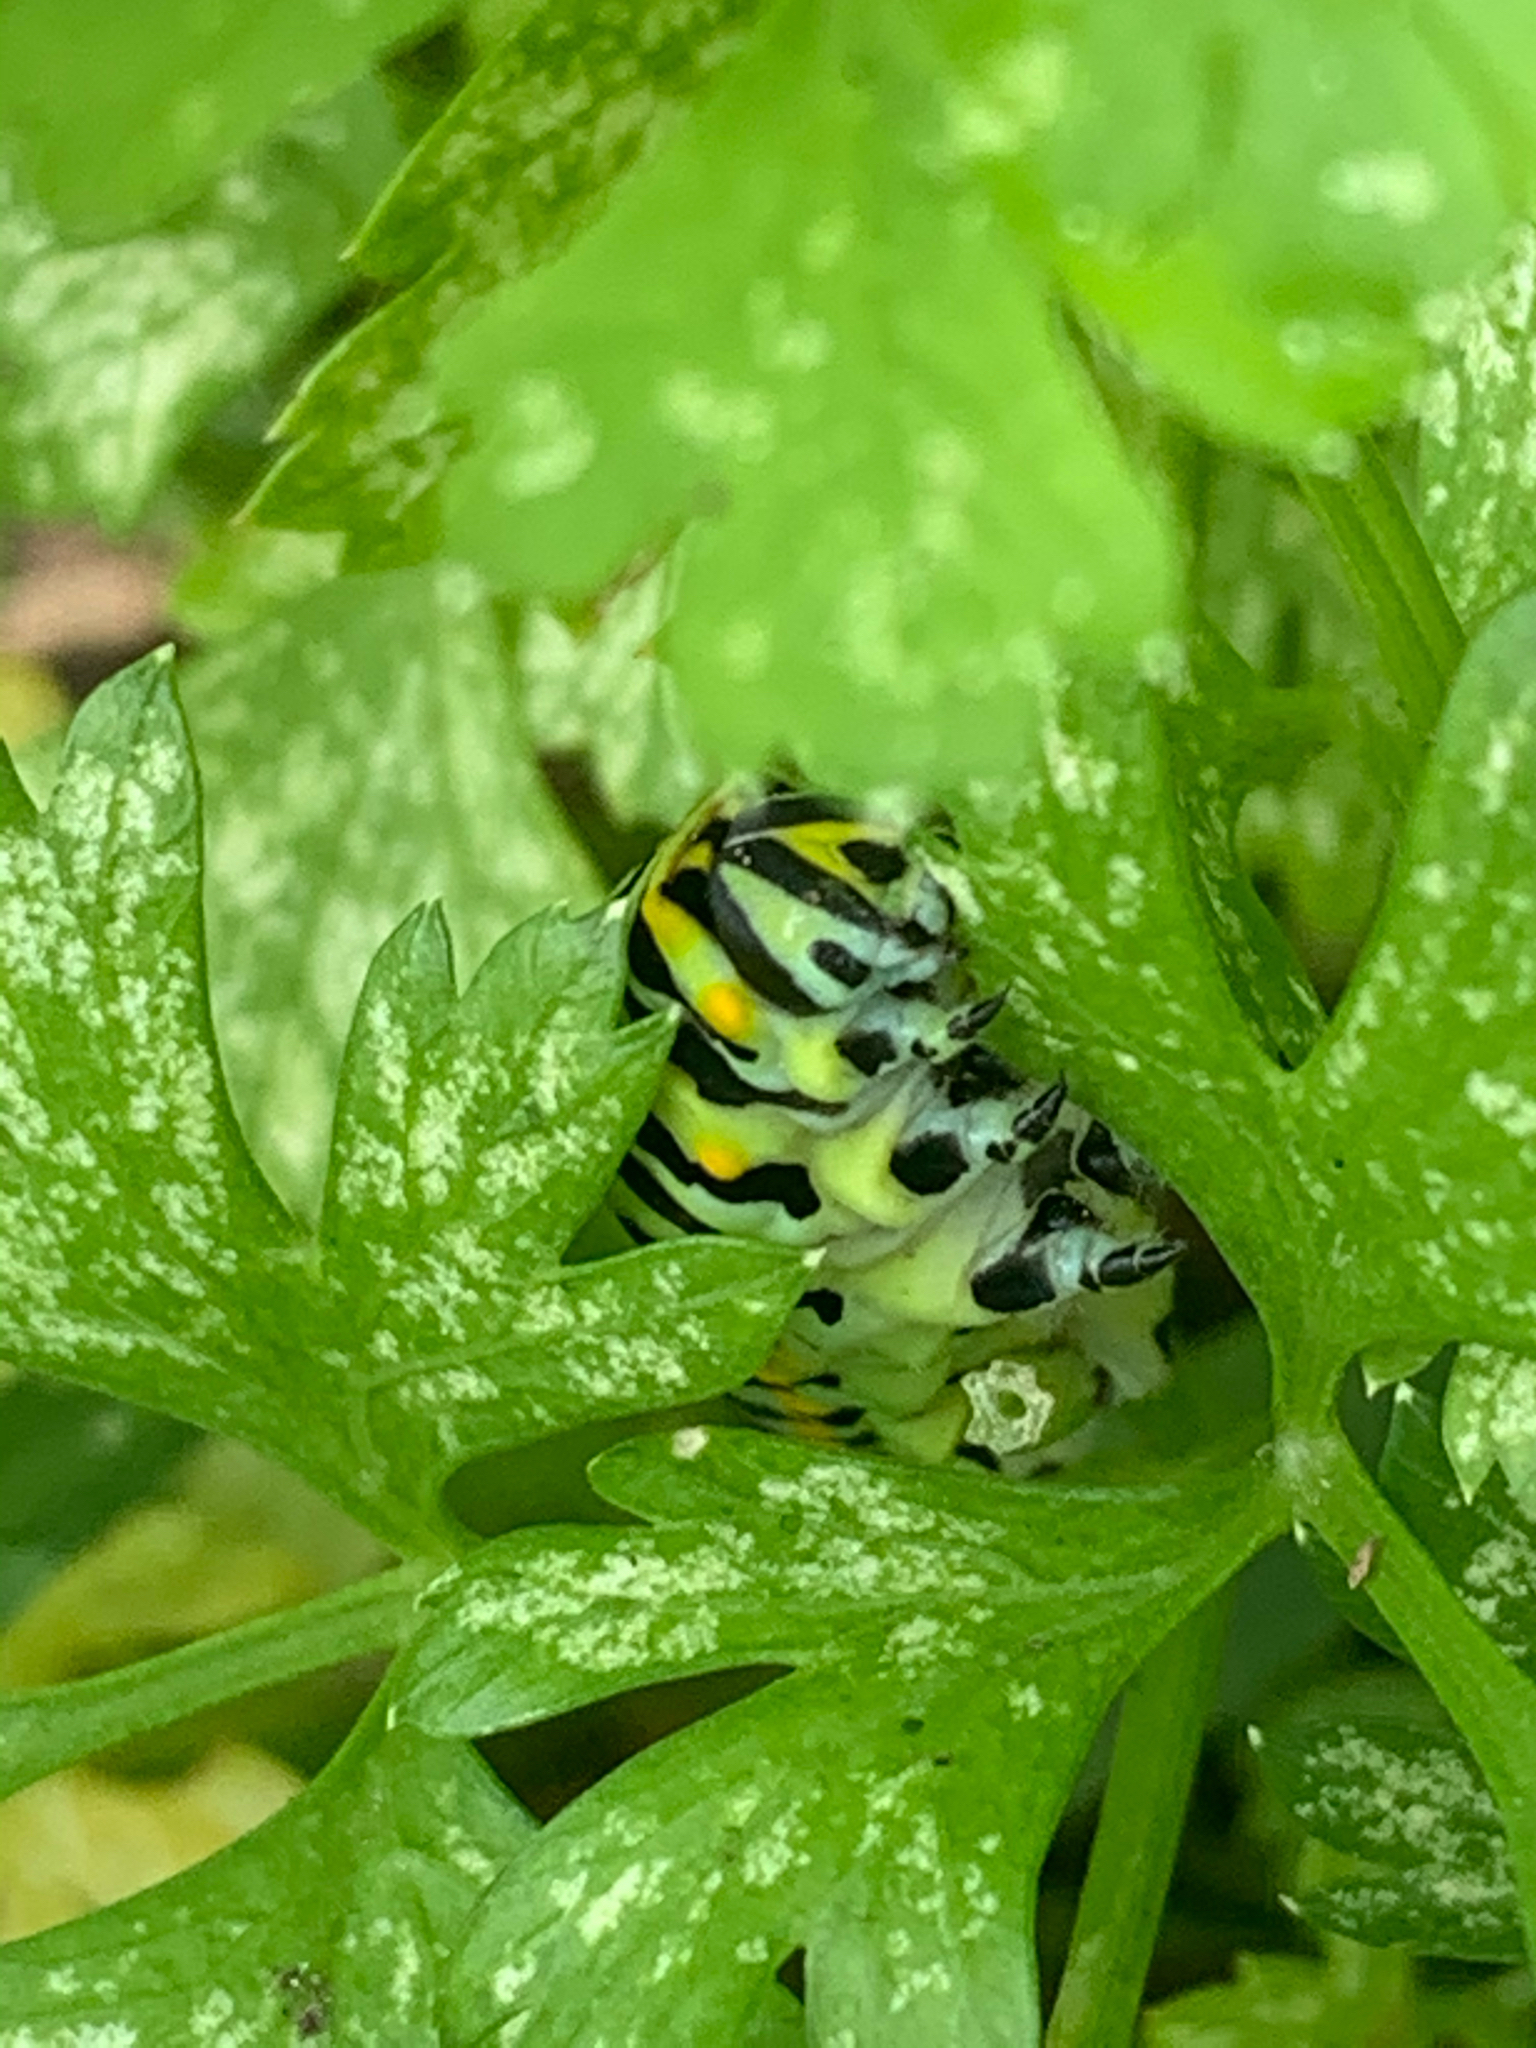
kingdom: Animalia
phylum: Arthropoda
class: Insecta
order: Lepidoptera
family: Papilionidae
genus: Papilio
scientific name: Papilio polyxenes
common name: Black swallowtail
